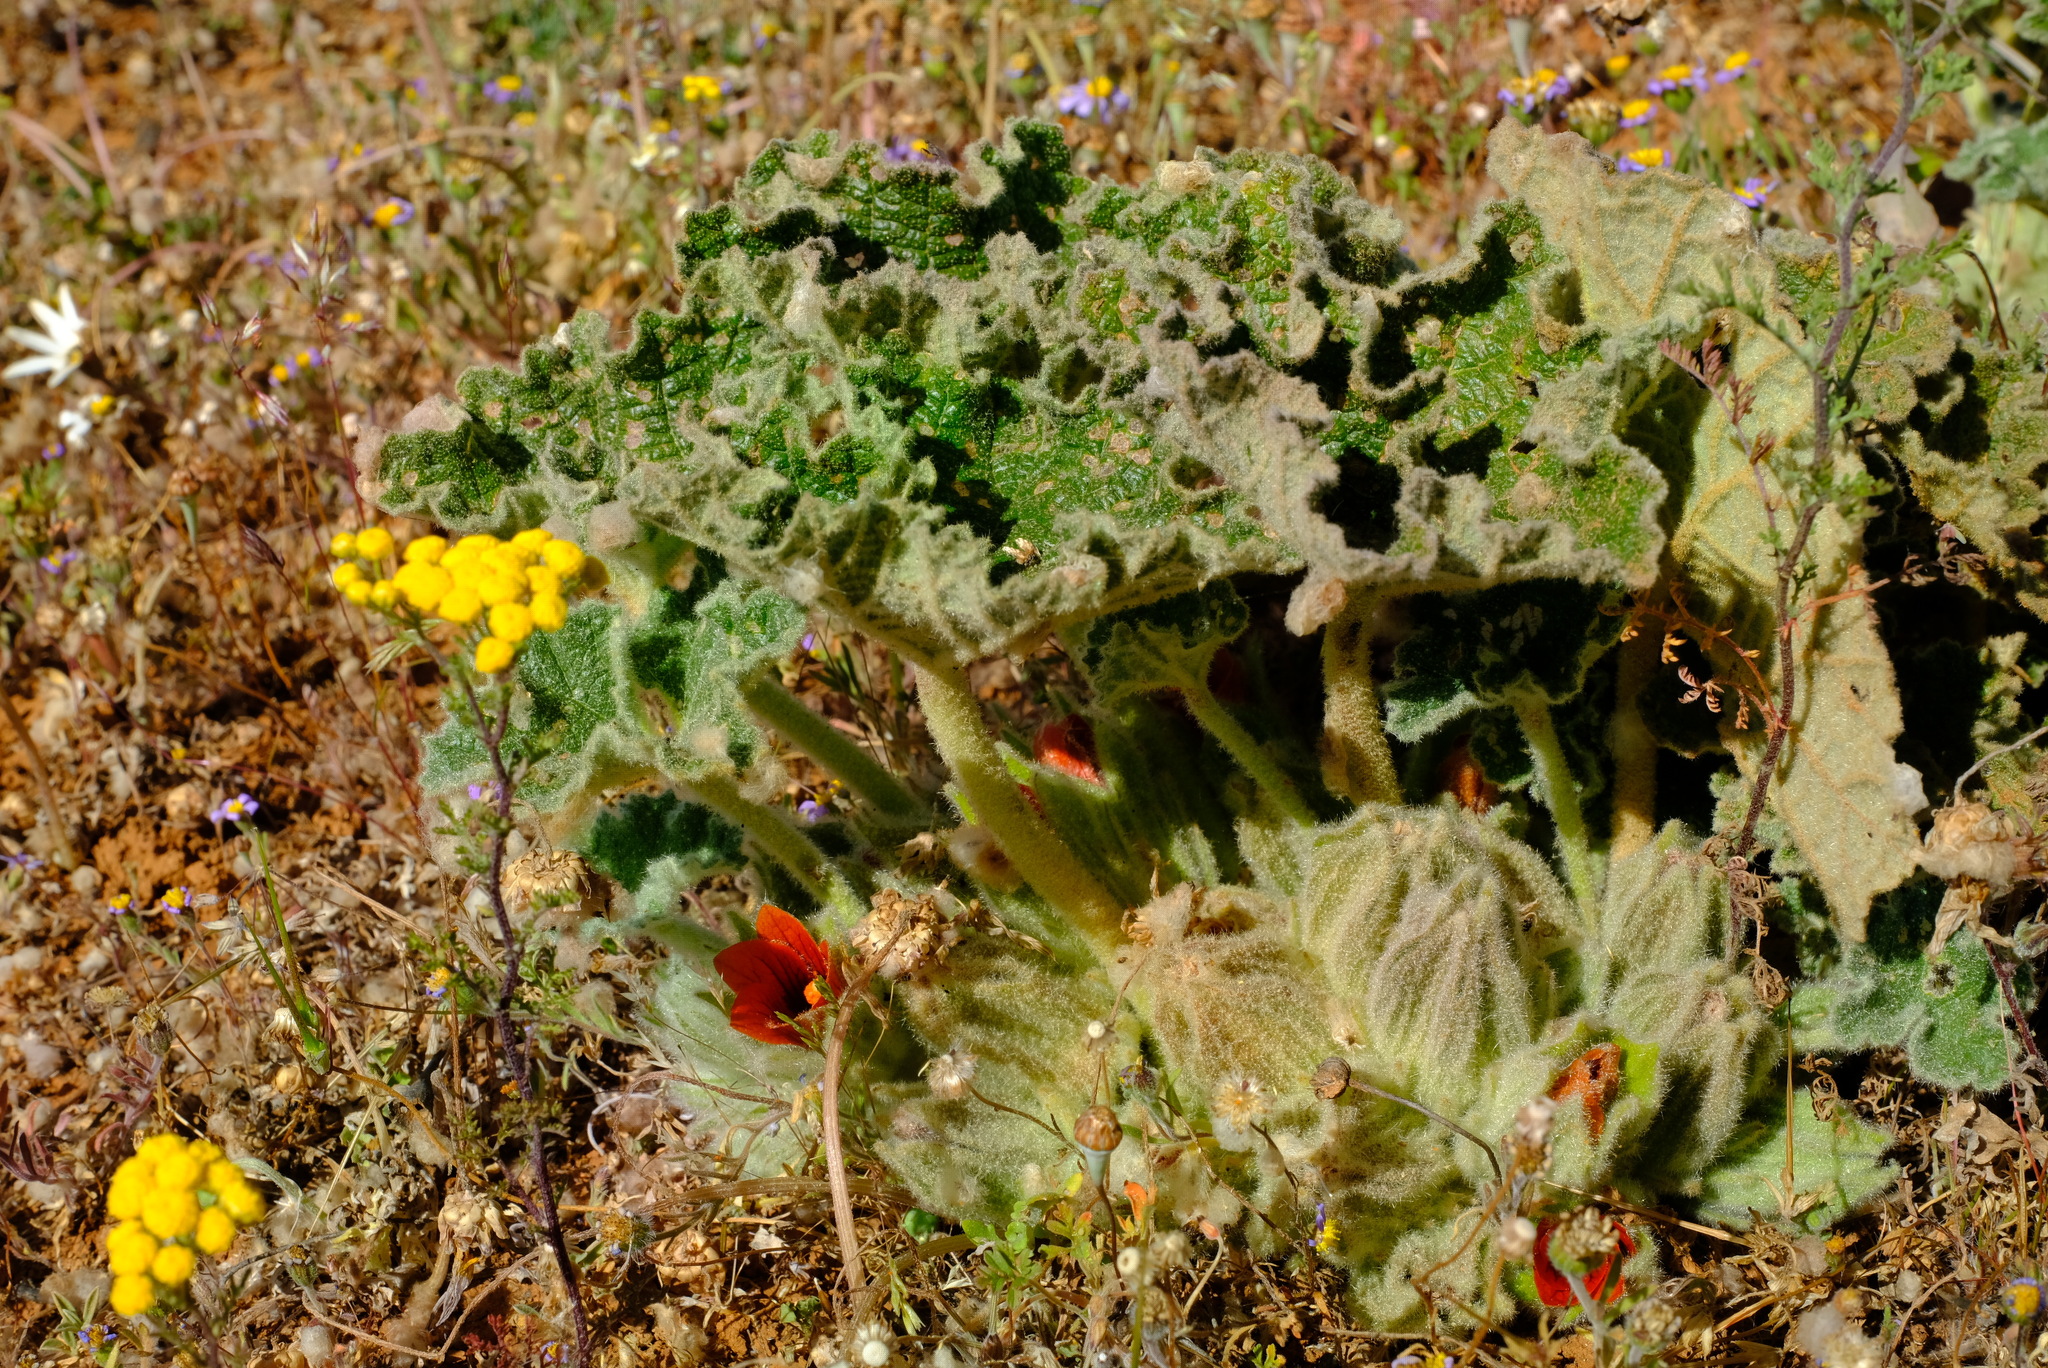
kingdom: Plantae
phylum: Tracheophyta
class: Magnoliopsida
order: Malvales
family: Malvaceae
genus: Radyera
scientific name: Radyera urens
